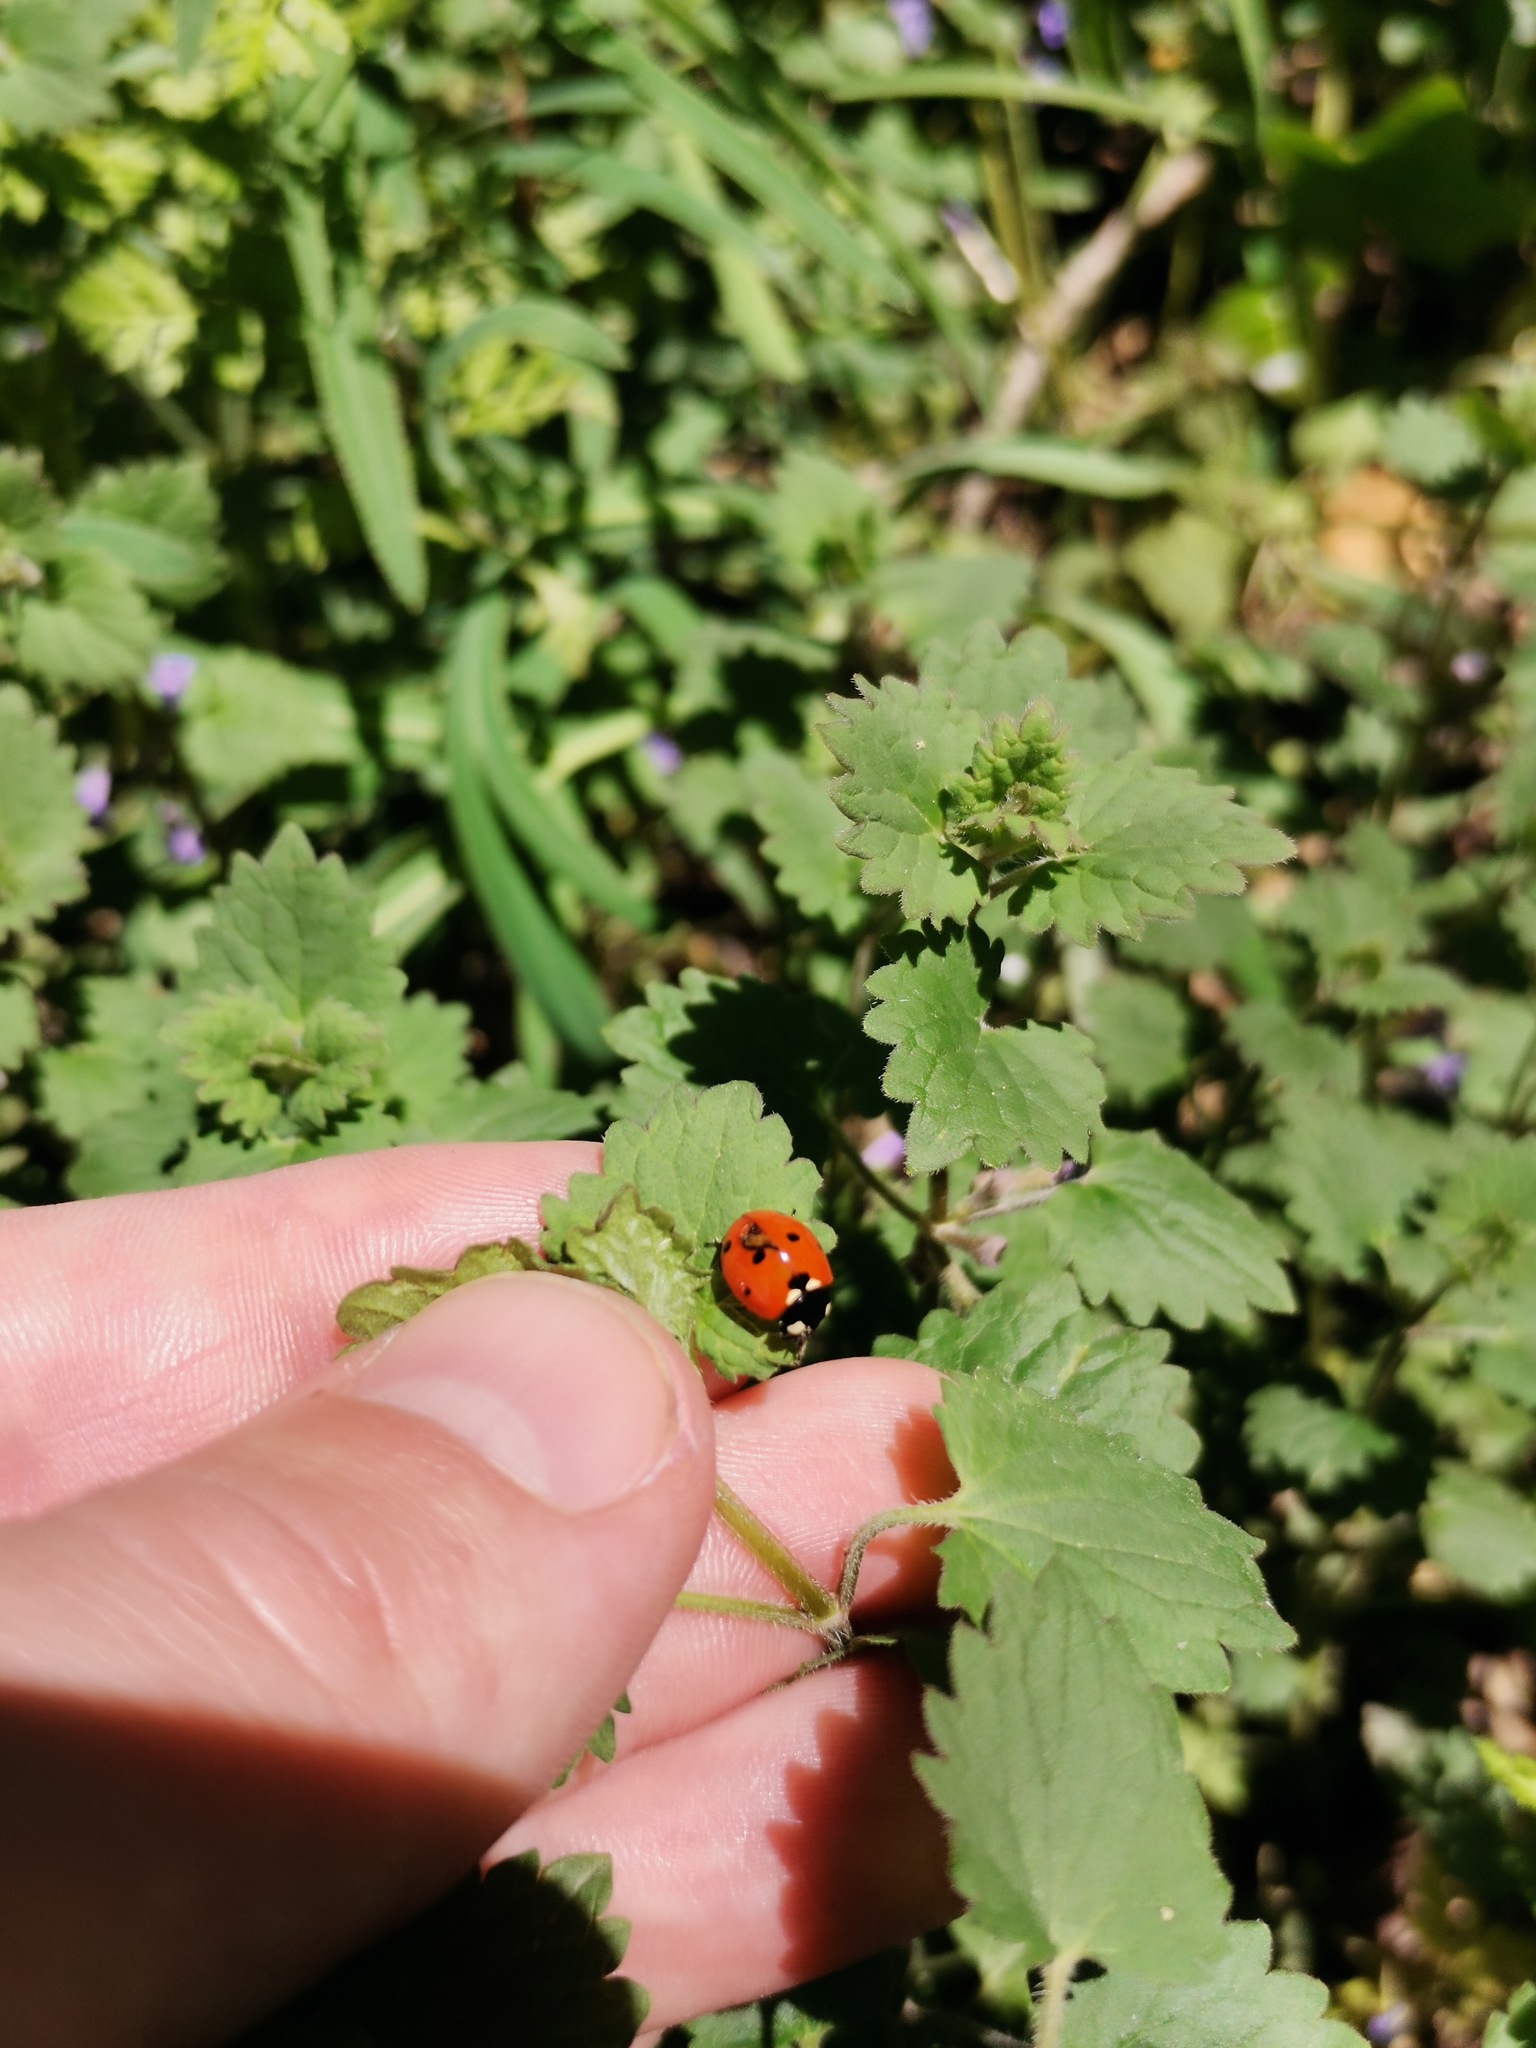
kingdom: Animalia
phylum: Arthropoda
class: Insecta
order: Coleoptera
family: Coccinellidae
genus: Coccinella
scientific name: Coccinella septempunctata
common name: Sevenspotted lady beetle
